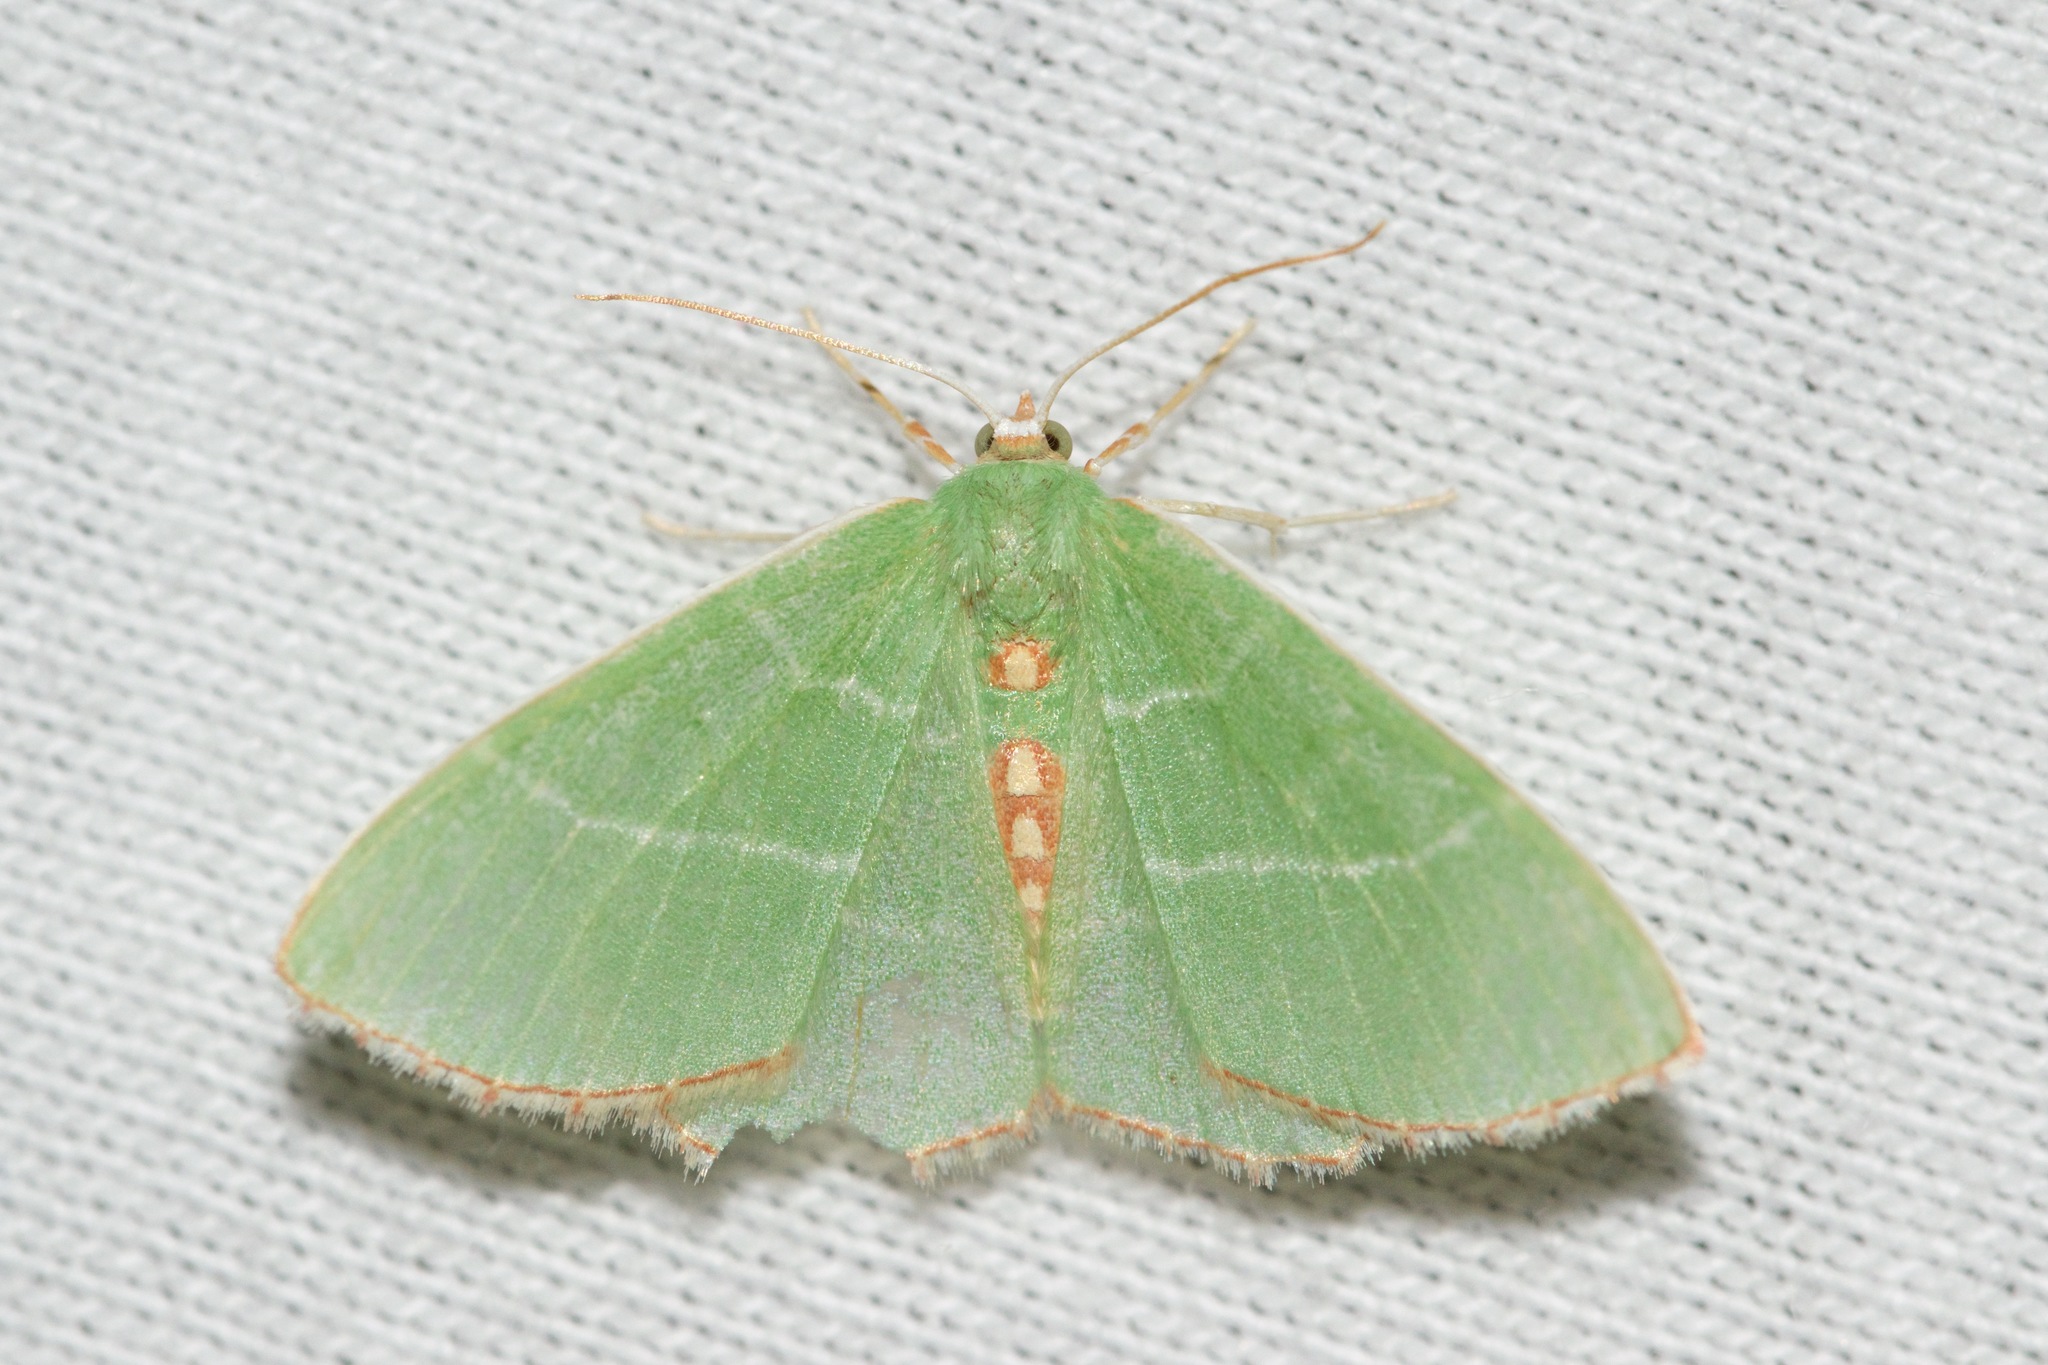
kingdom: Animalia
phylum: Arthropoda
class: Insecta
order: Lepidoptera
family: Geometridae
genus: Nemoria
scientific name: Nemoria bistriaria
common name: Red-fringed emerald
